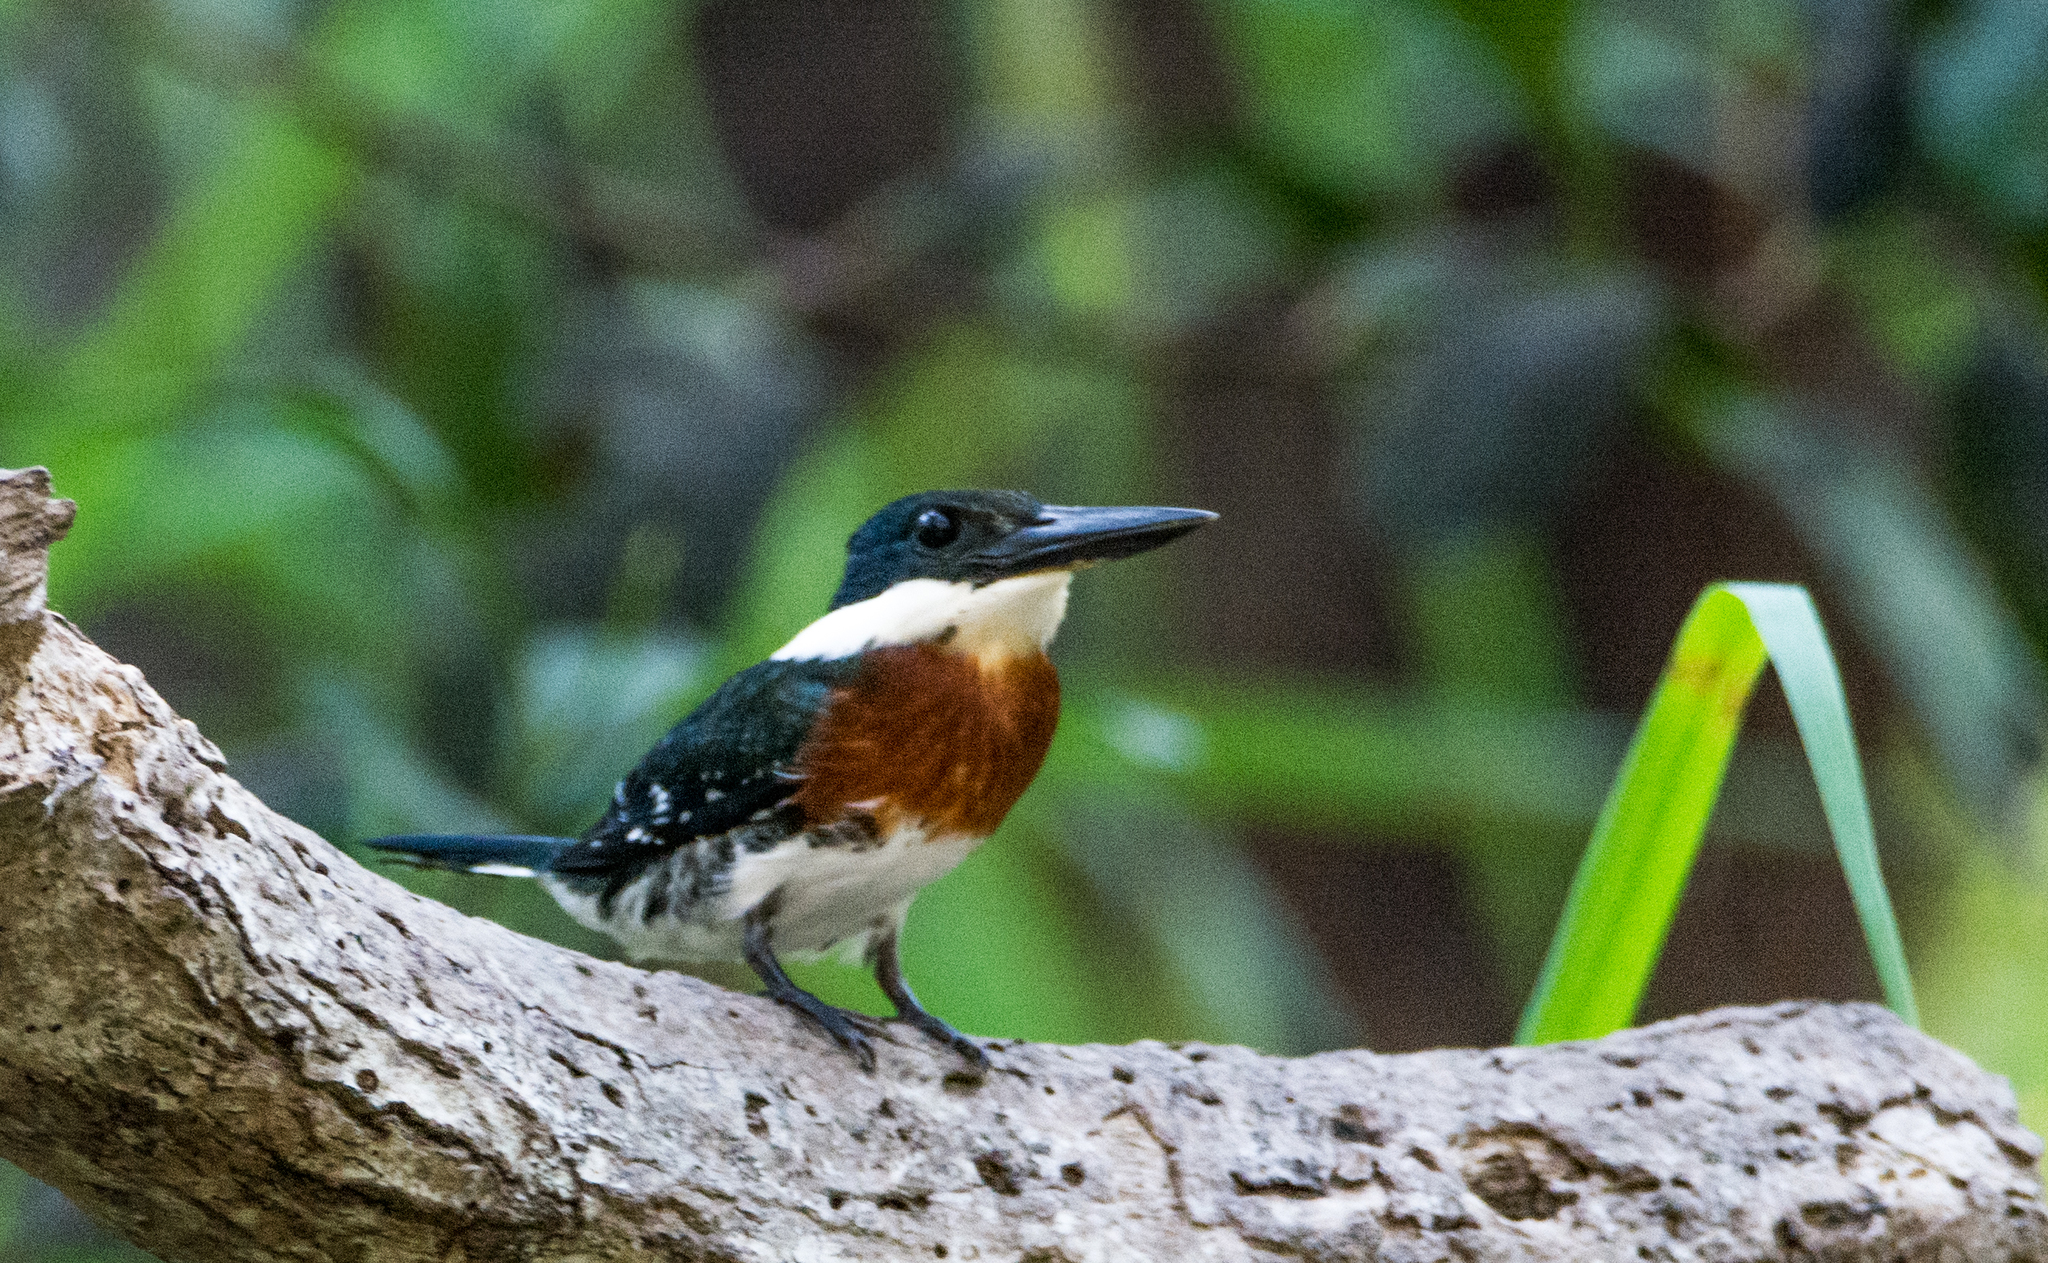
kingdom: Animalia
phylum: Chordata
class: Aves
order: Coraciiformes
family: Alcedinidae
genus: Chloroceryle
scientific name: Chloroceryle americana
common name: Green kingfisher
